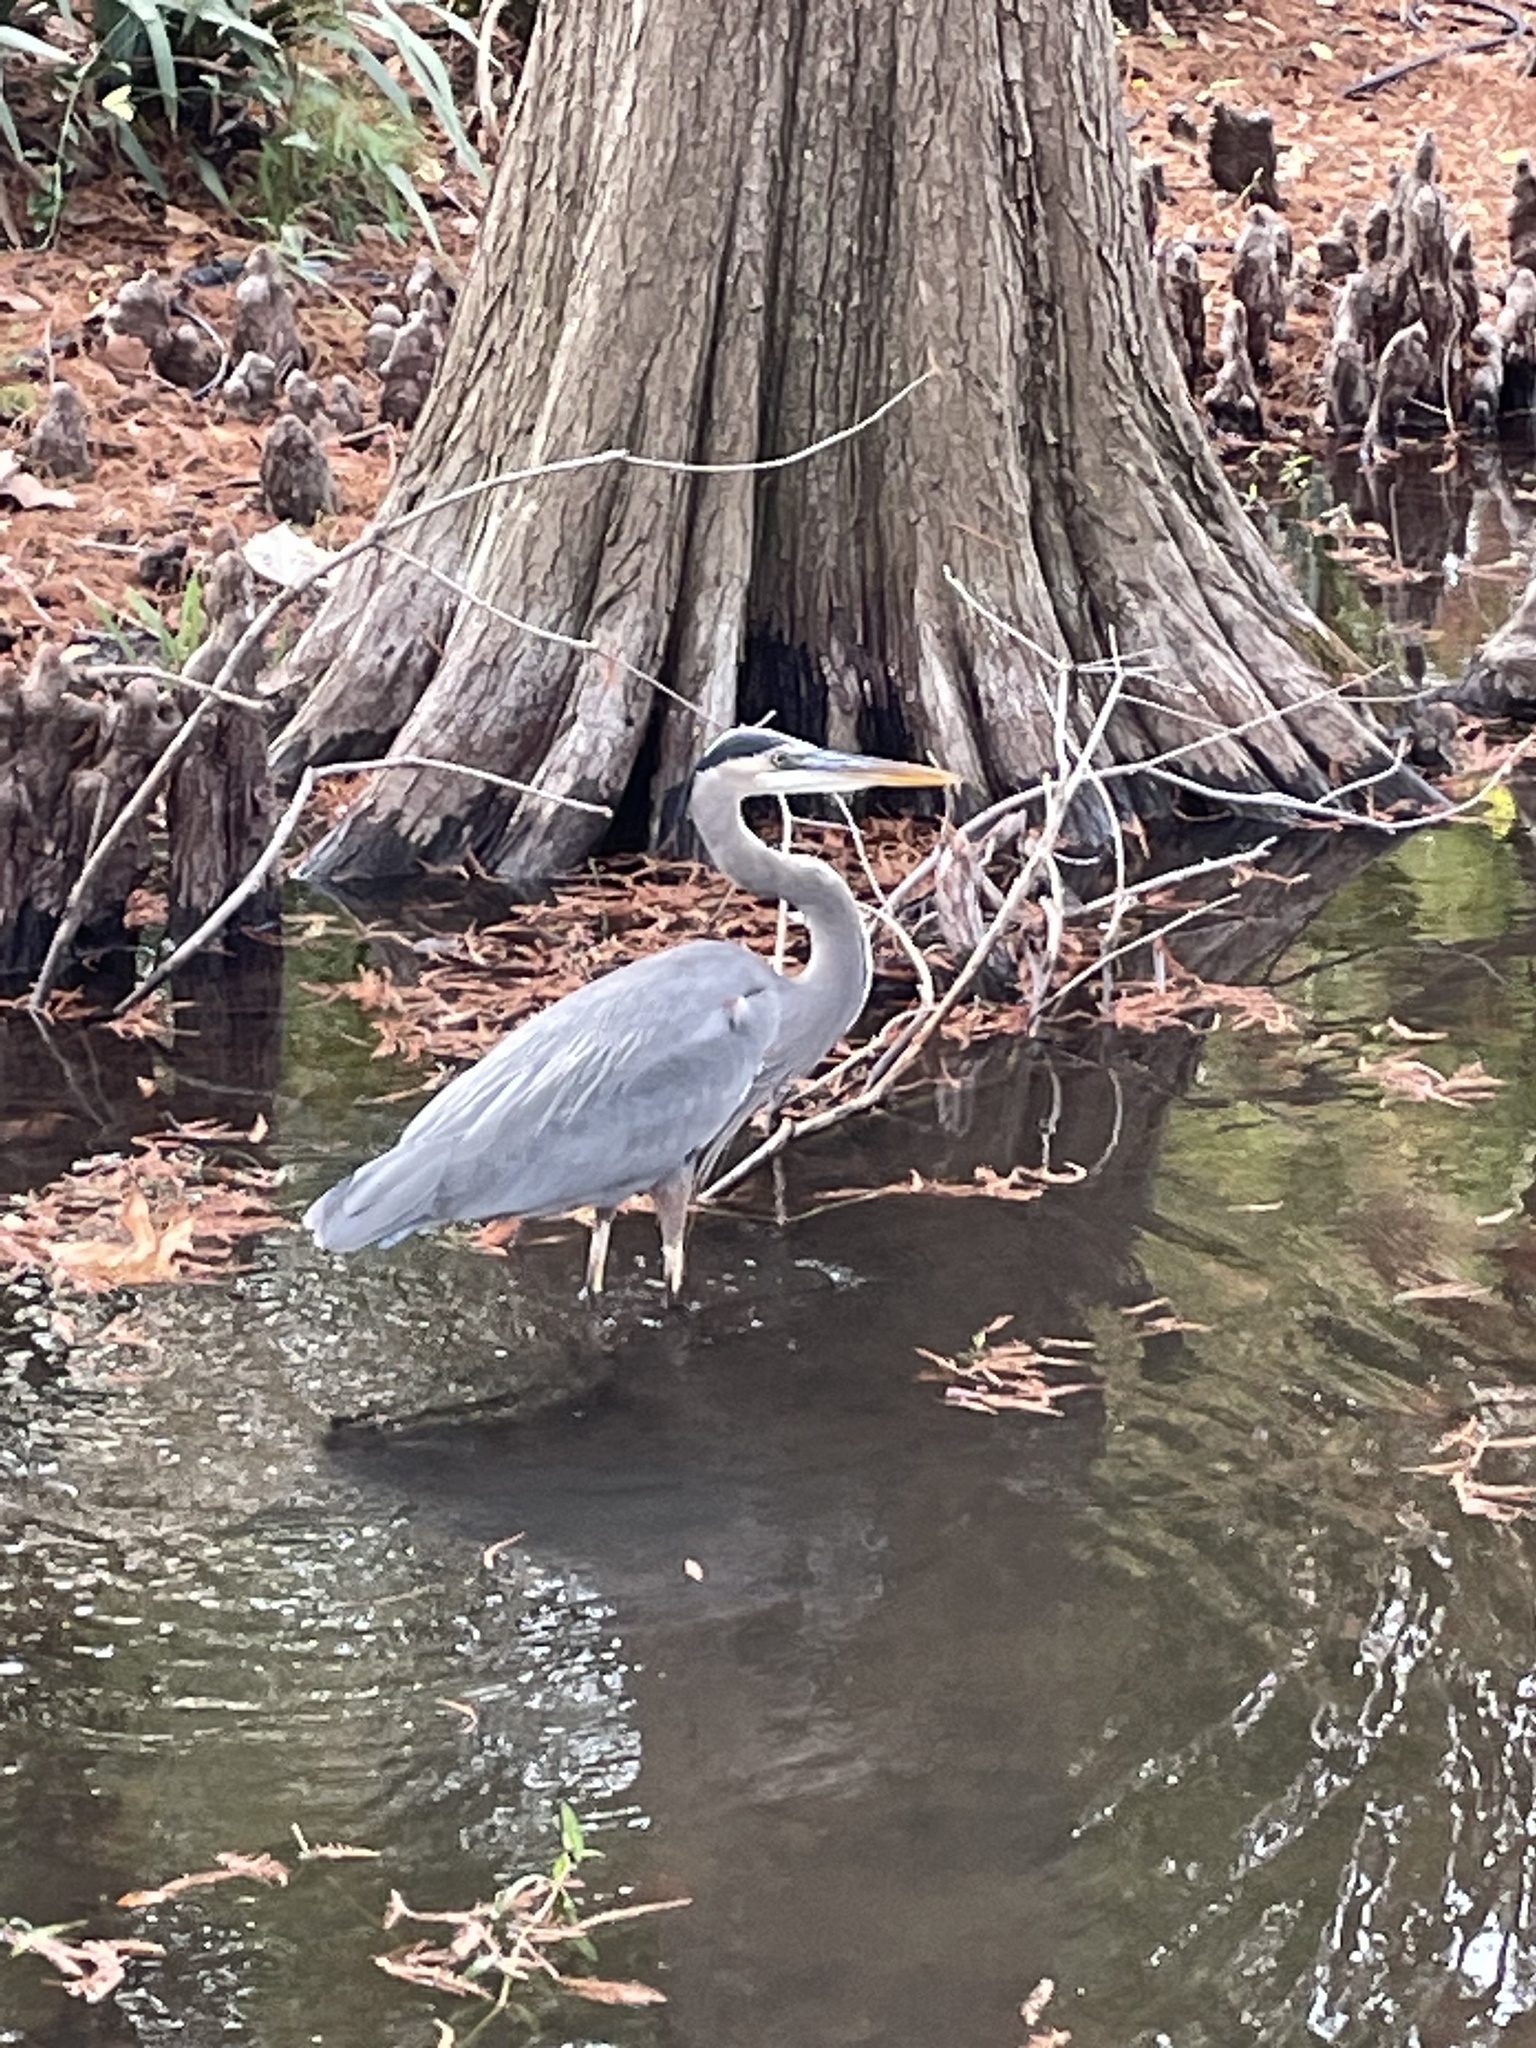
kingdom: Animalia
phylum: Chordata
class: Aves
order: Pelecaniformes
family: Ardeidae
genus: Ardea
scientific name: Ardea herodias
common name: Great blue heron
